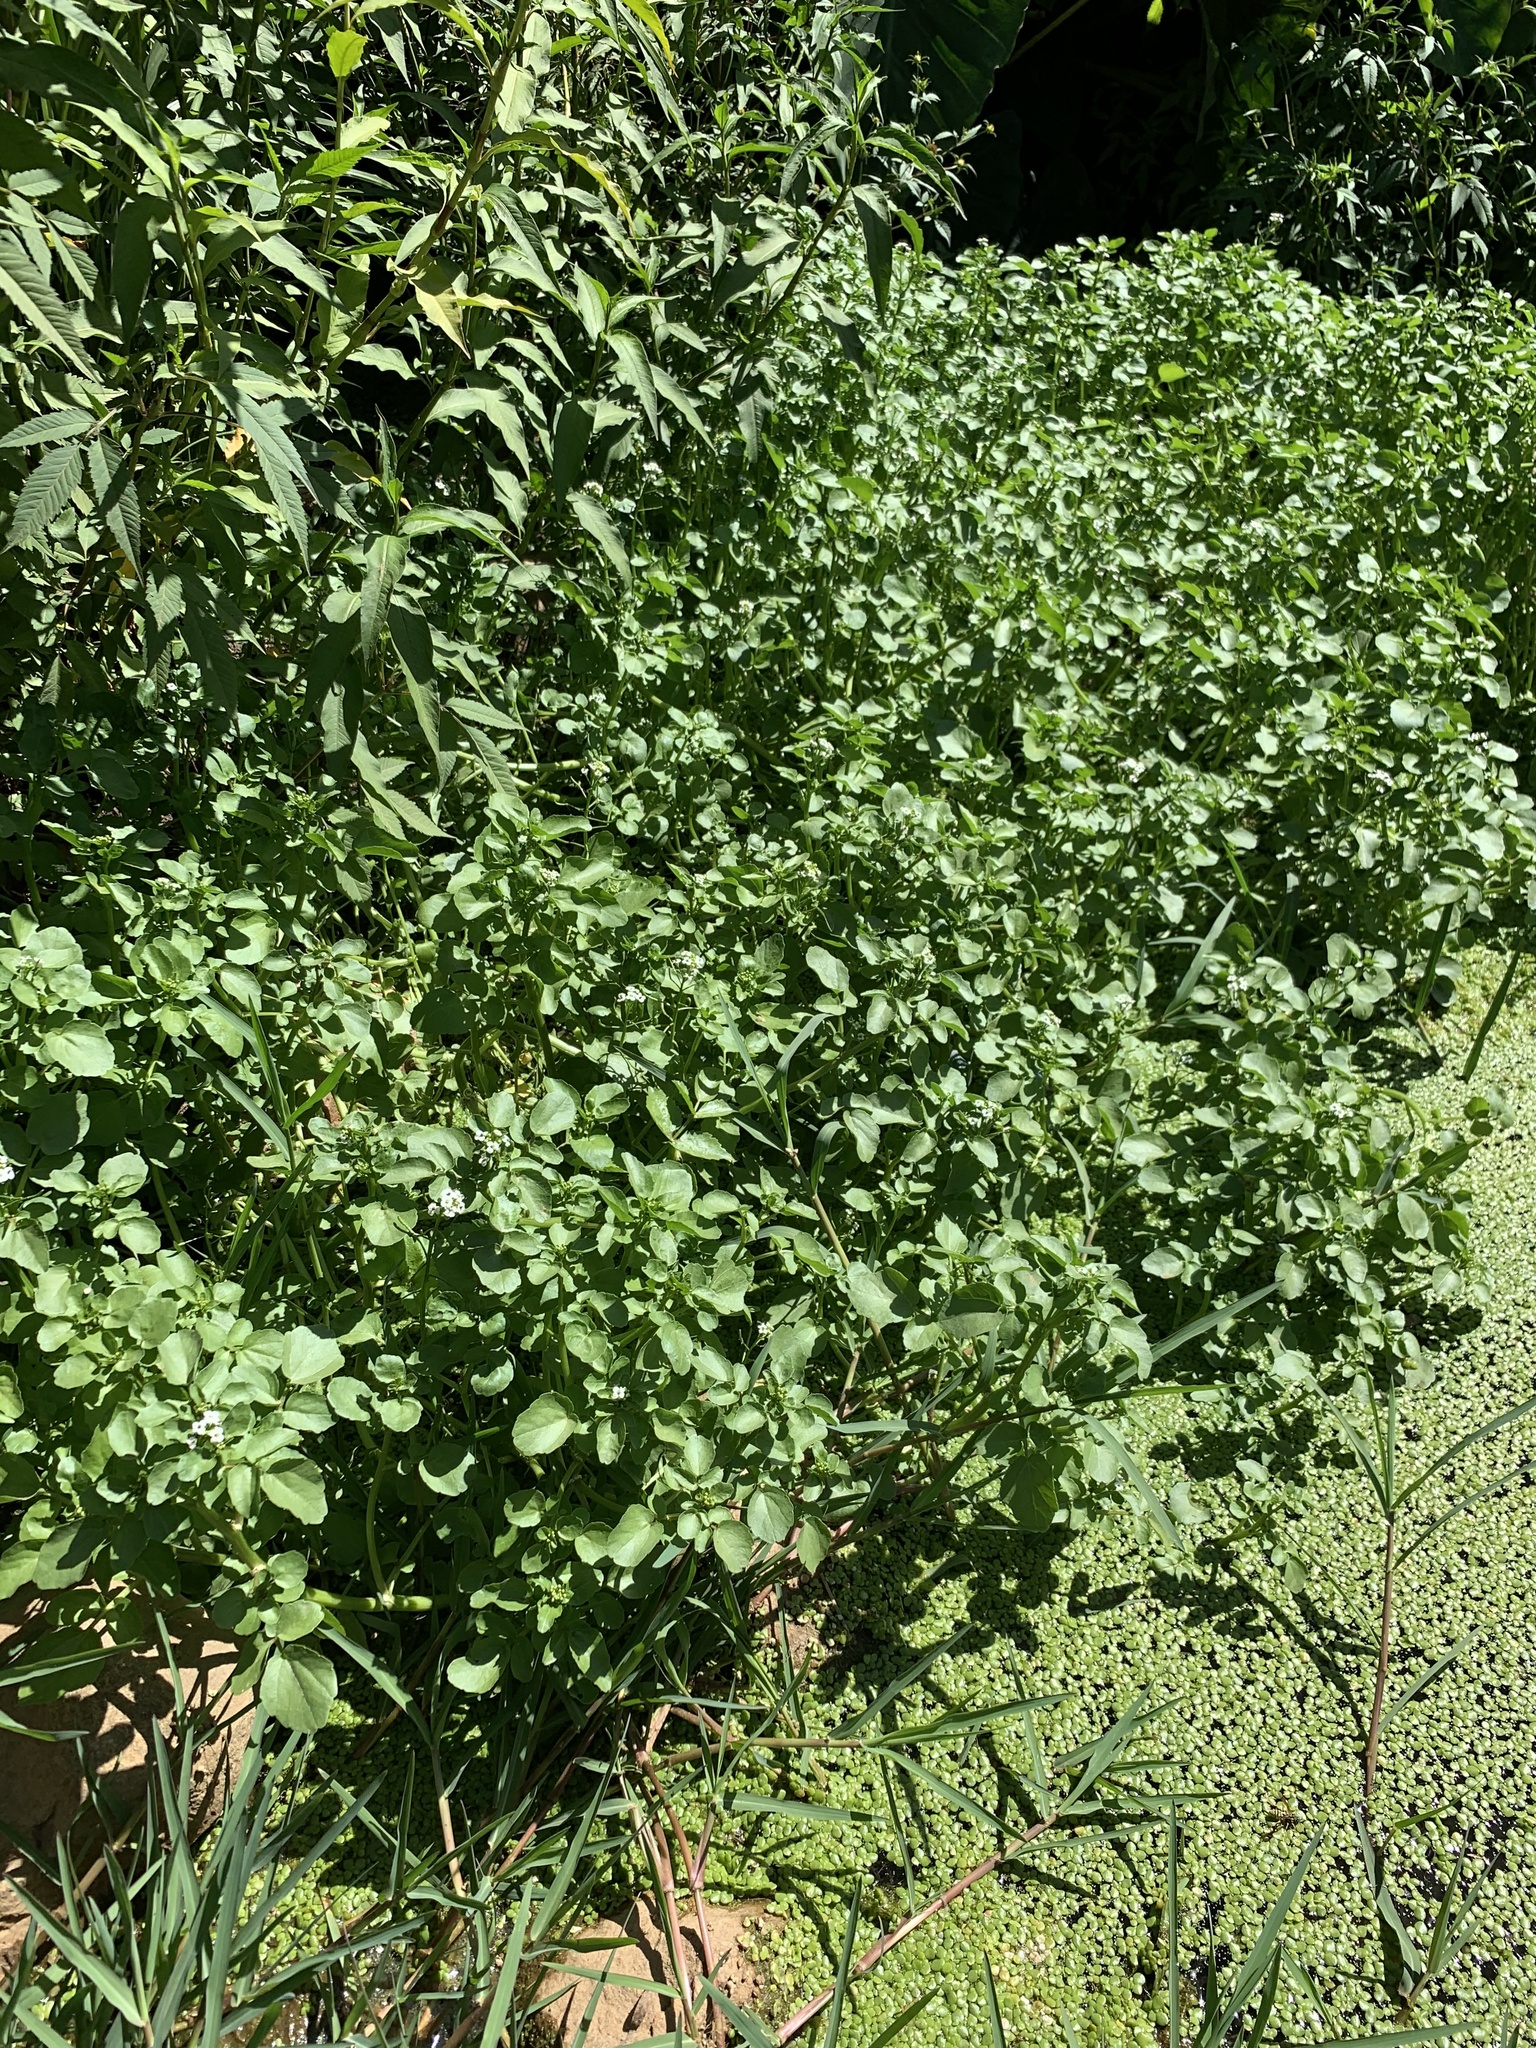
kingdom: Plantae
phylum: Tracheophyta
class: Magnoliopsida
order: Brassicales
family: Brassicaceae
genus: Nasturtium
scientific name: Nasturtium officinale
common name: Watercress
